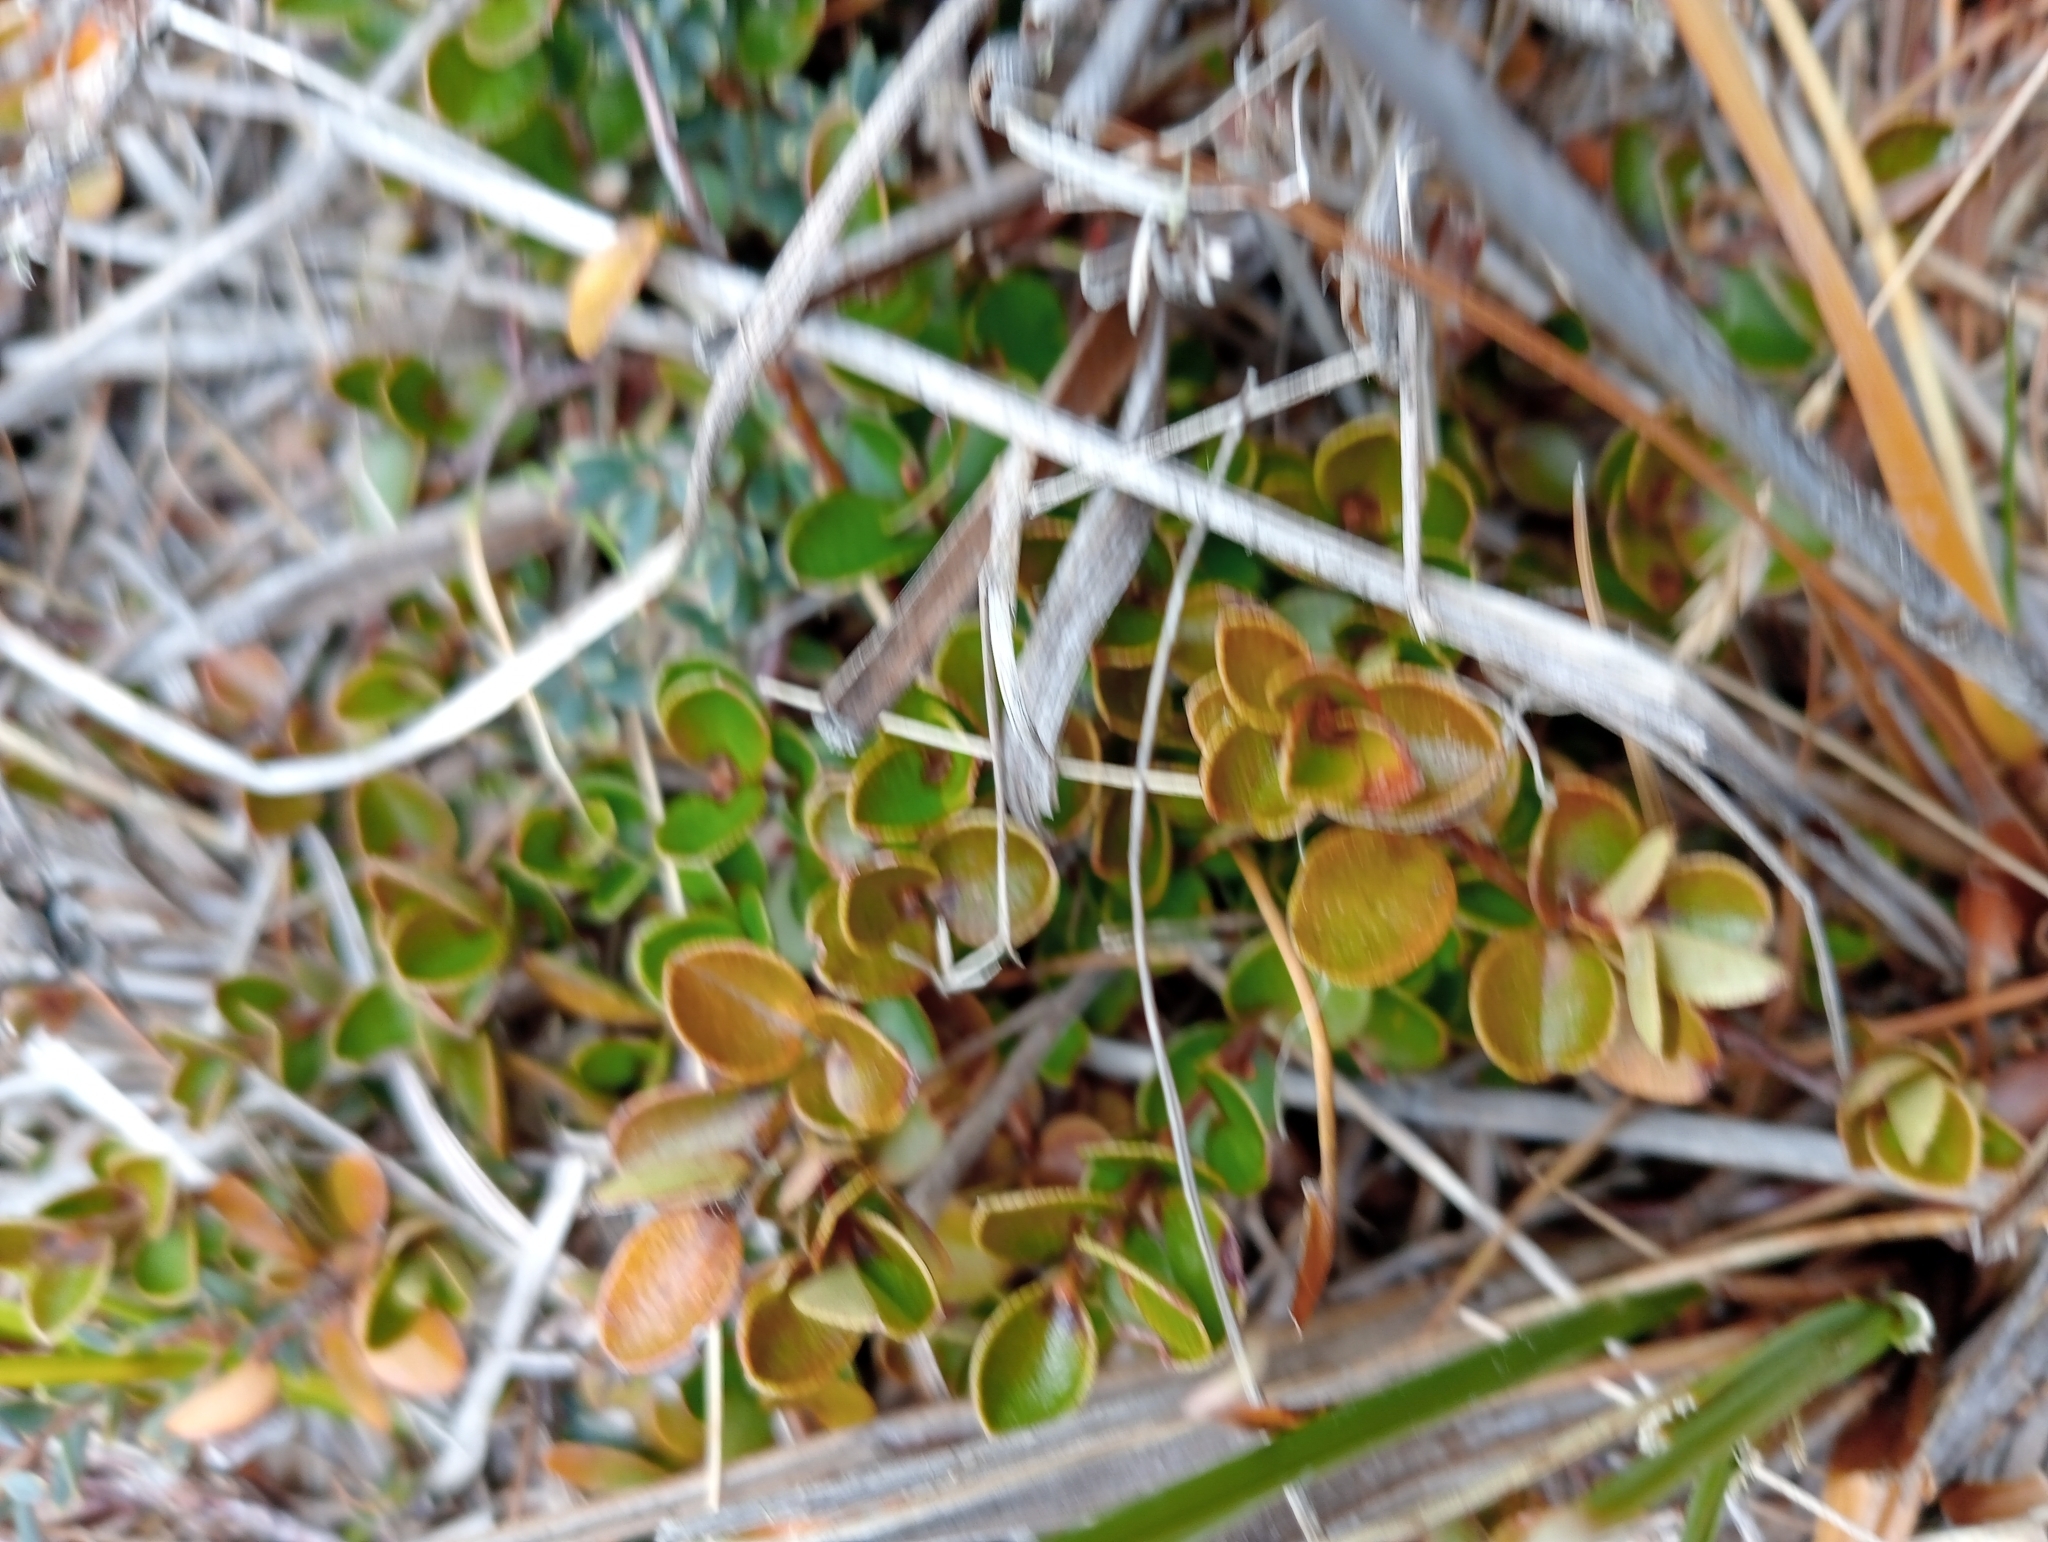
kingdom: Plantae
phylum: Tracheophyta
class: Magnoliopsida
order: Ericales
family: Primulaceae
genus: Myrsine
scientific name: Myrsine nummularia
